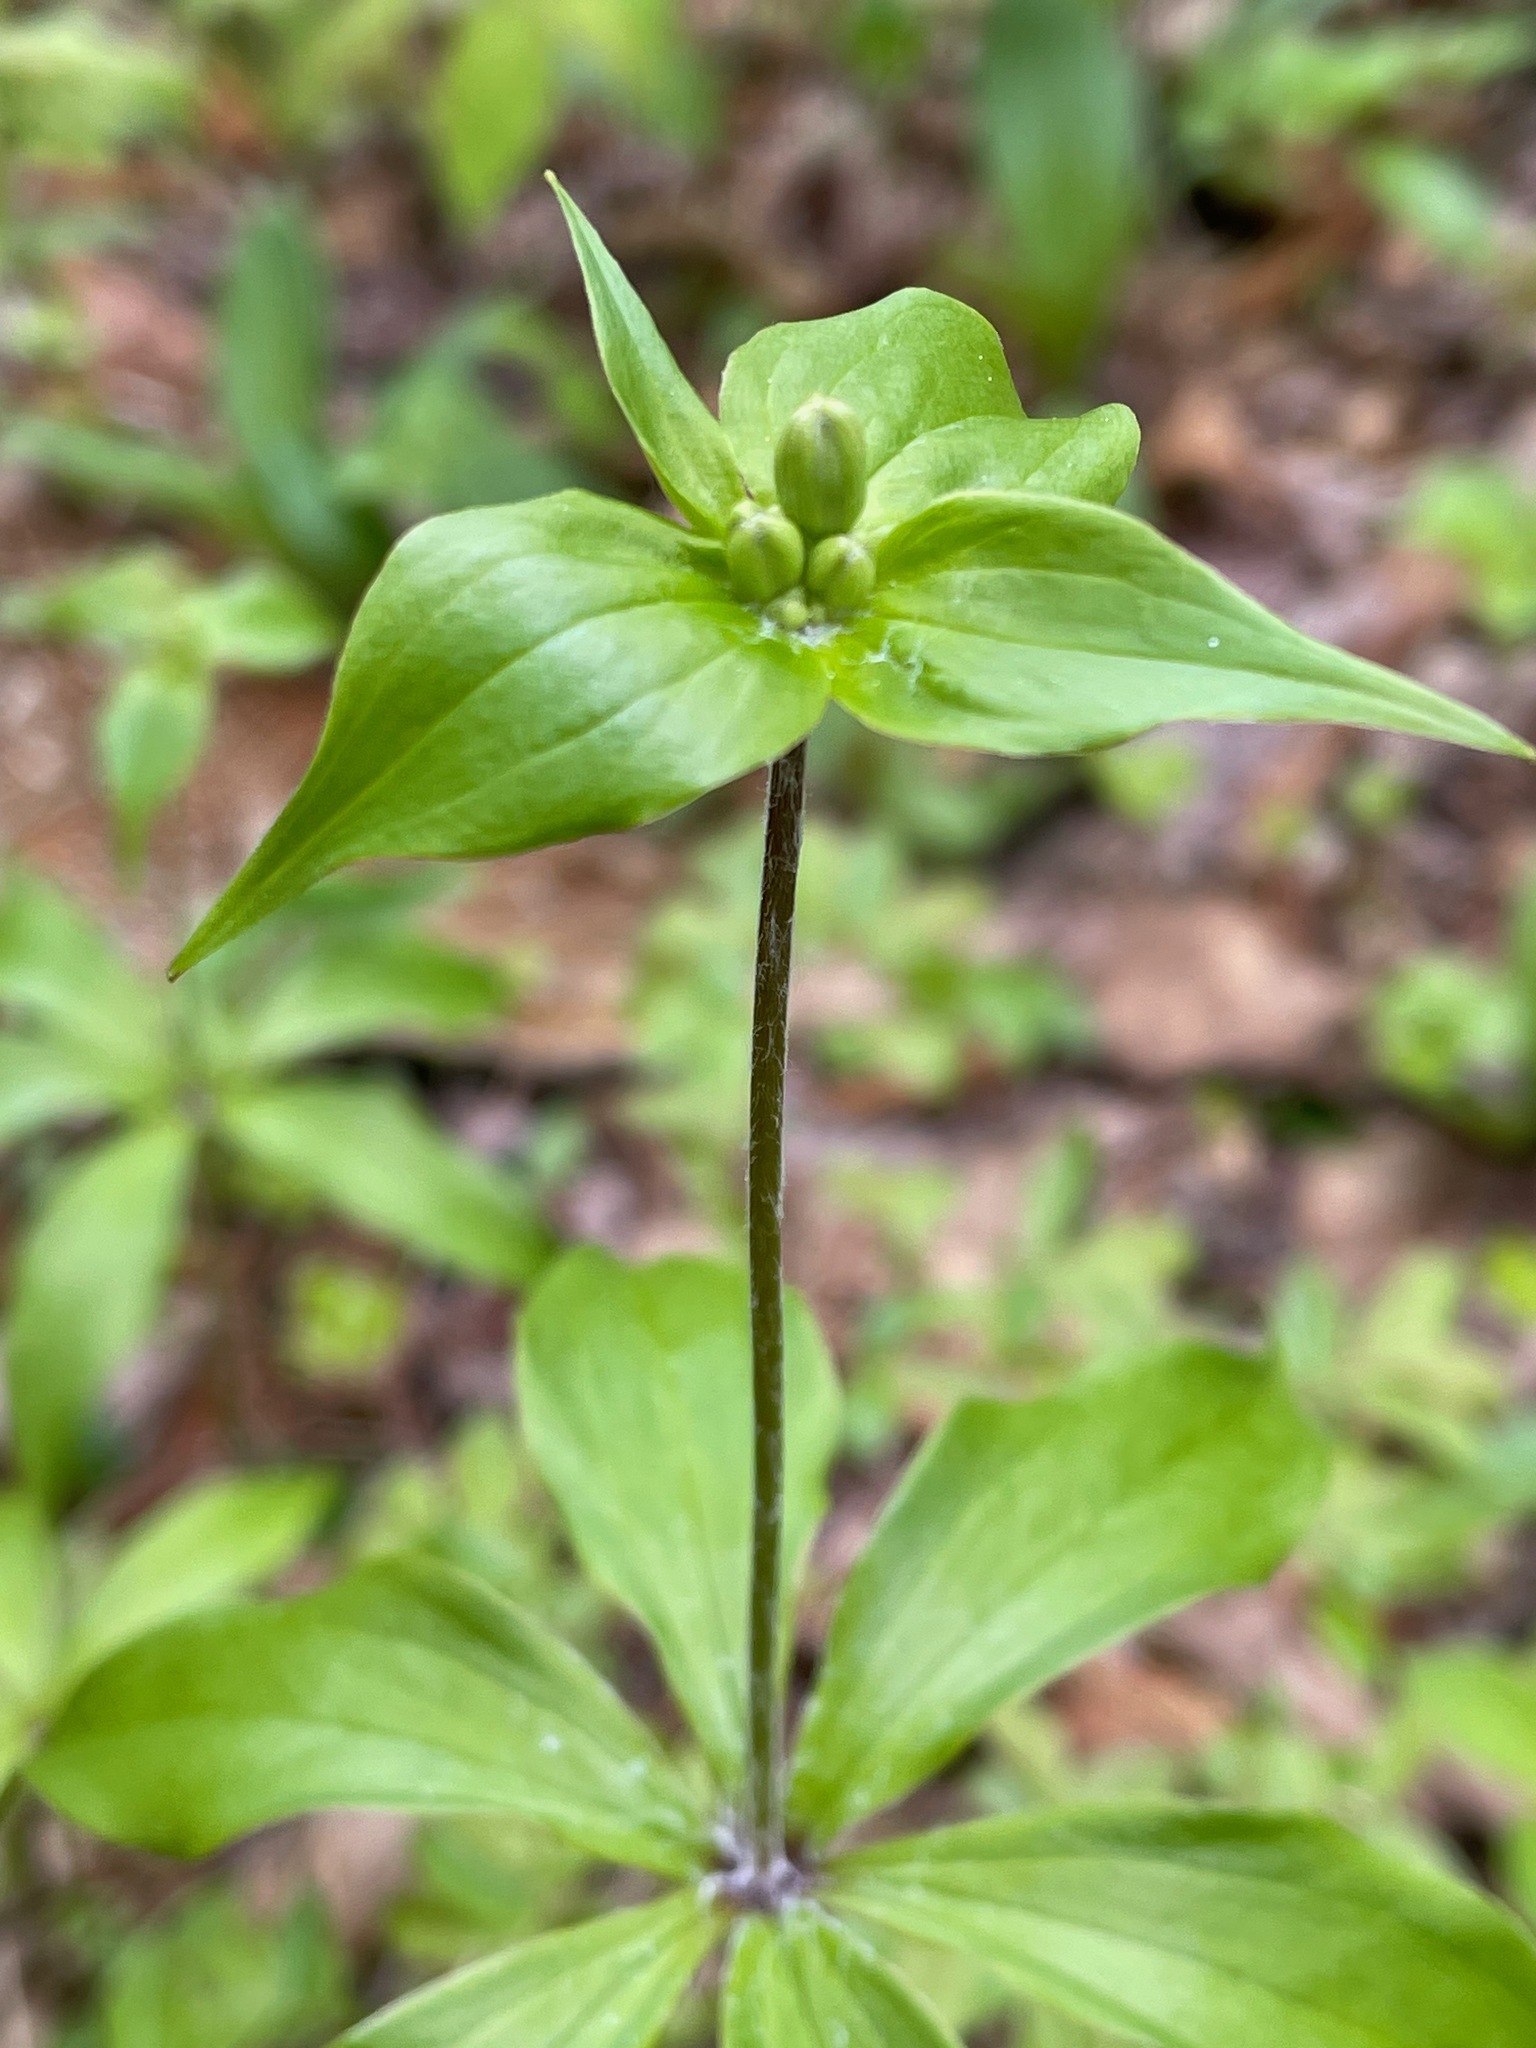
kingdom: Plantae
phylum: Tracheophyta
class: Liliopsida
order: Liliales
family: Liliaceae
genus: Medeola
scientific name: Medeola virginiana
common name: Indian cucumber-root
